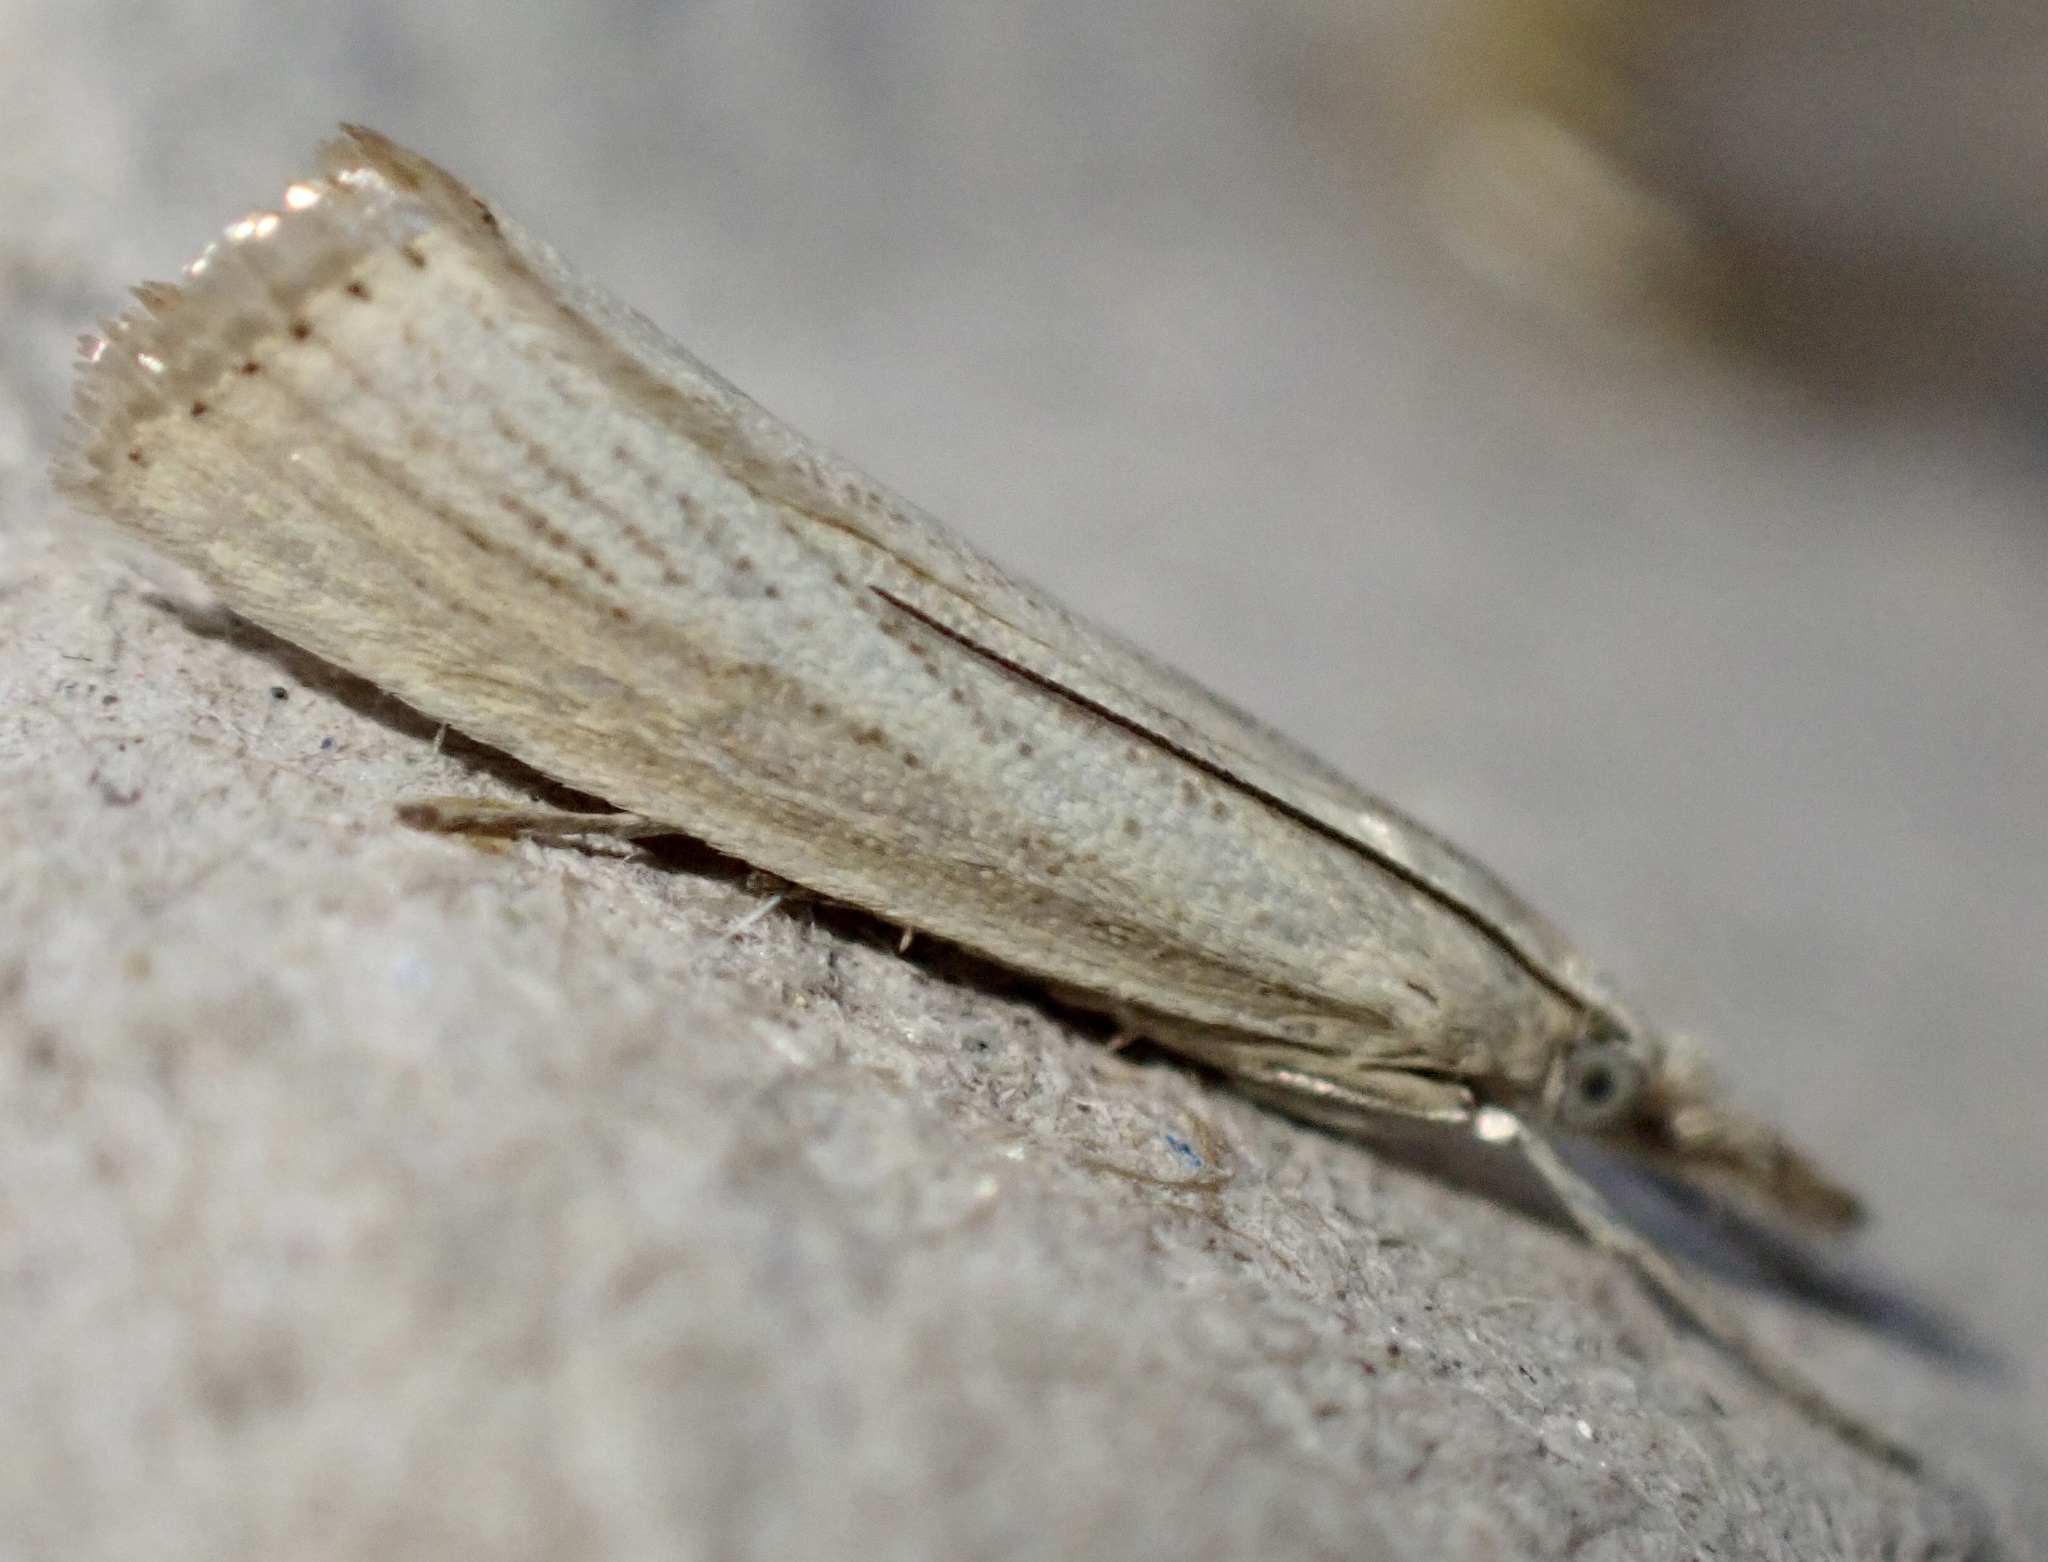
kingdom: Animalia
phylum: Arthropoda
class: Insecta
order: Lepidoptera
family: Crambidae
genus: Agriphila
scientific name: Agriphila straminella
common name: Straw grass-veneer
